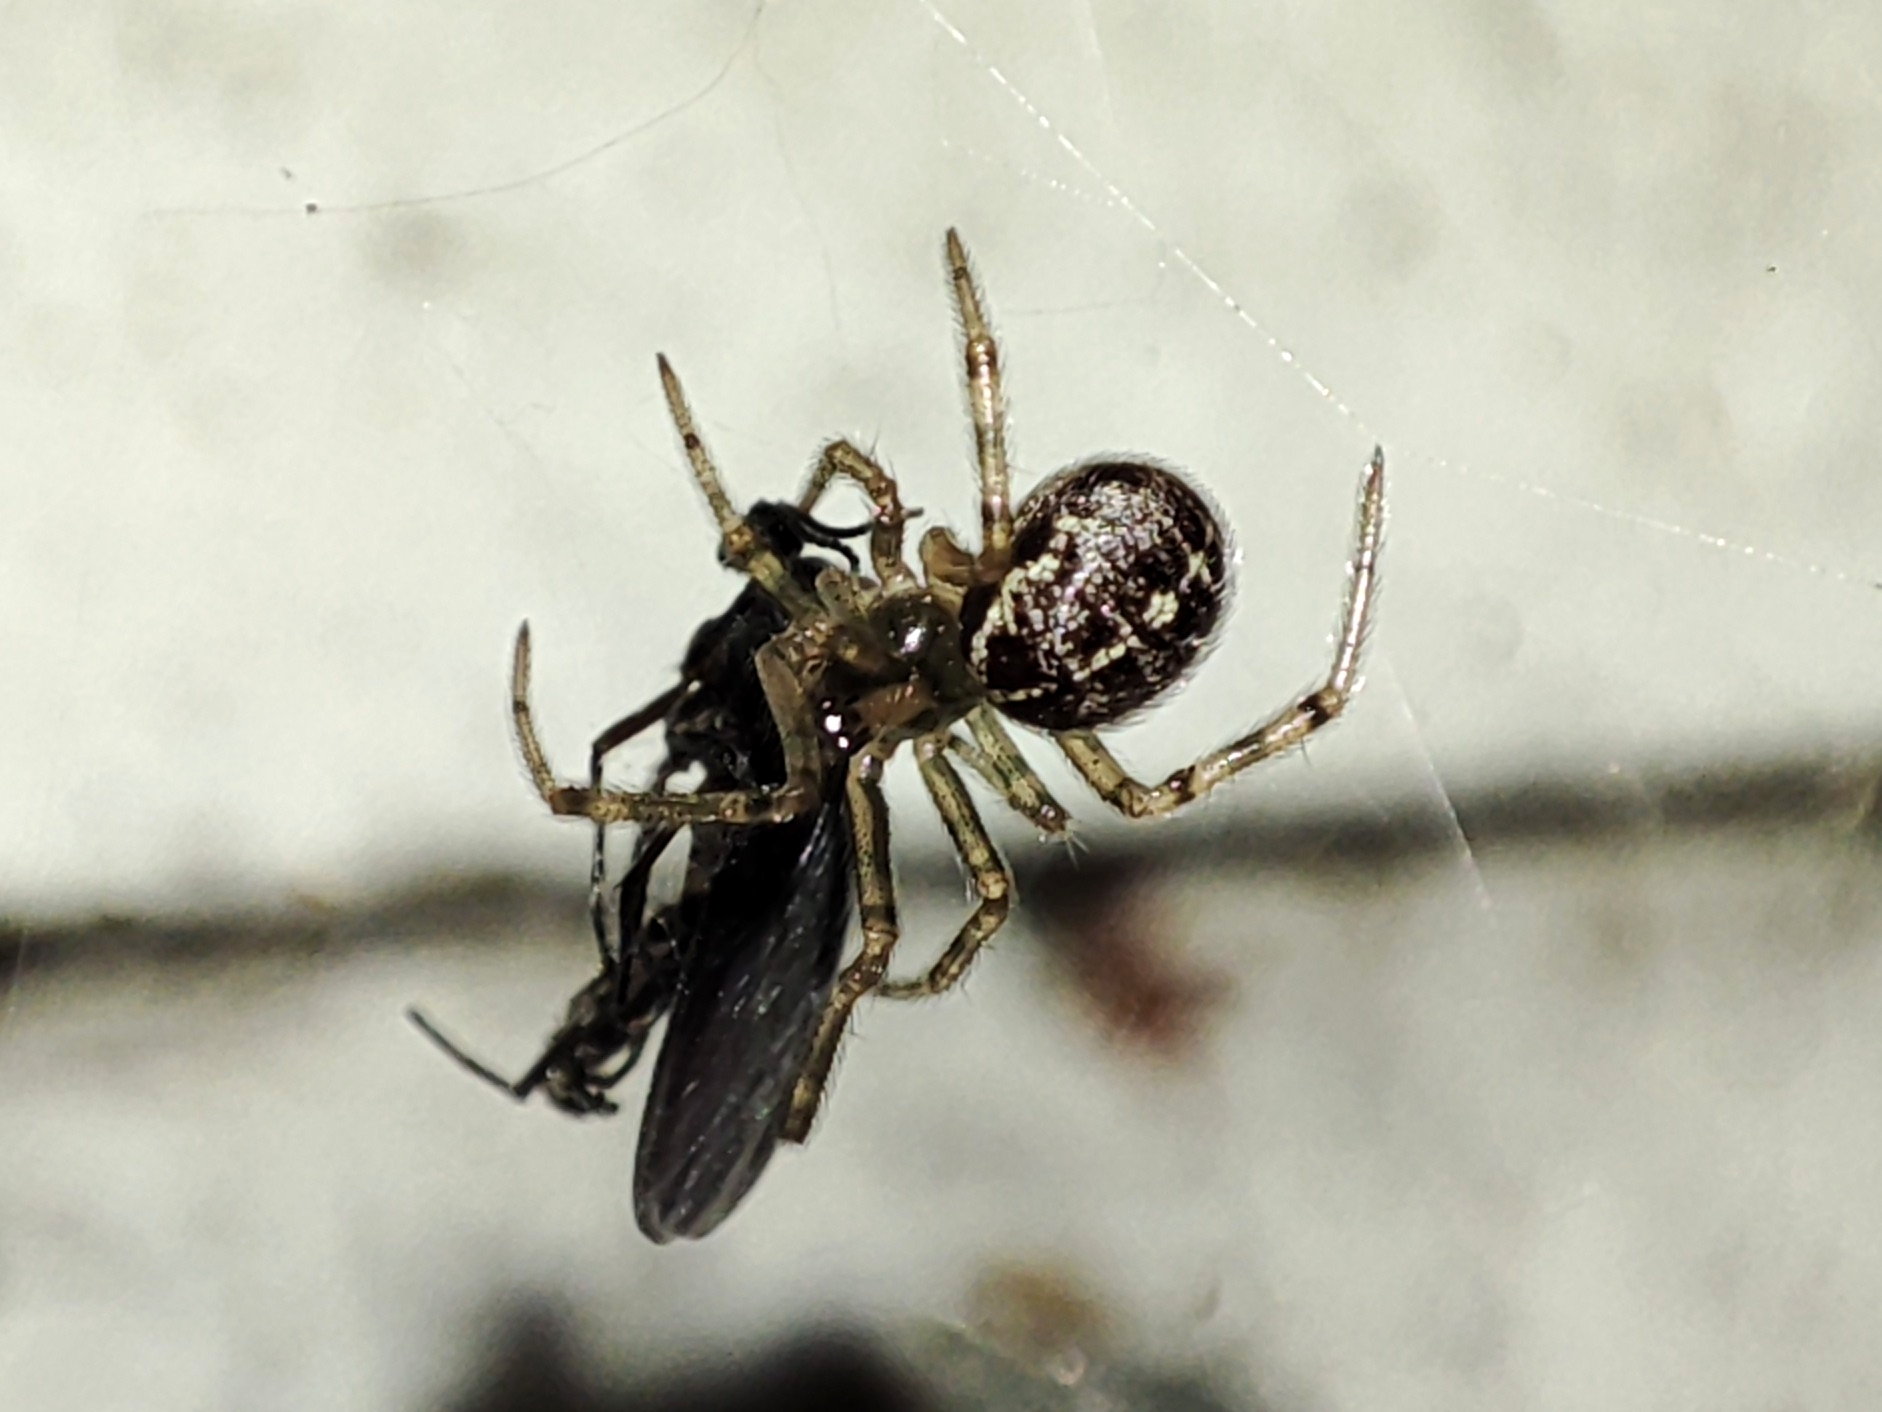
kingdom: Animalia
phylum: Arthropoda
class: Arachnida
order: Araneae
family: Theridiidae
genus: Steatoda
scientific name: Steatoda castanea
